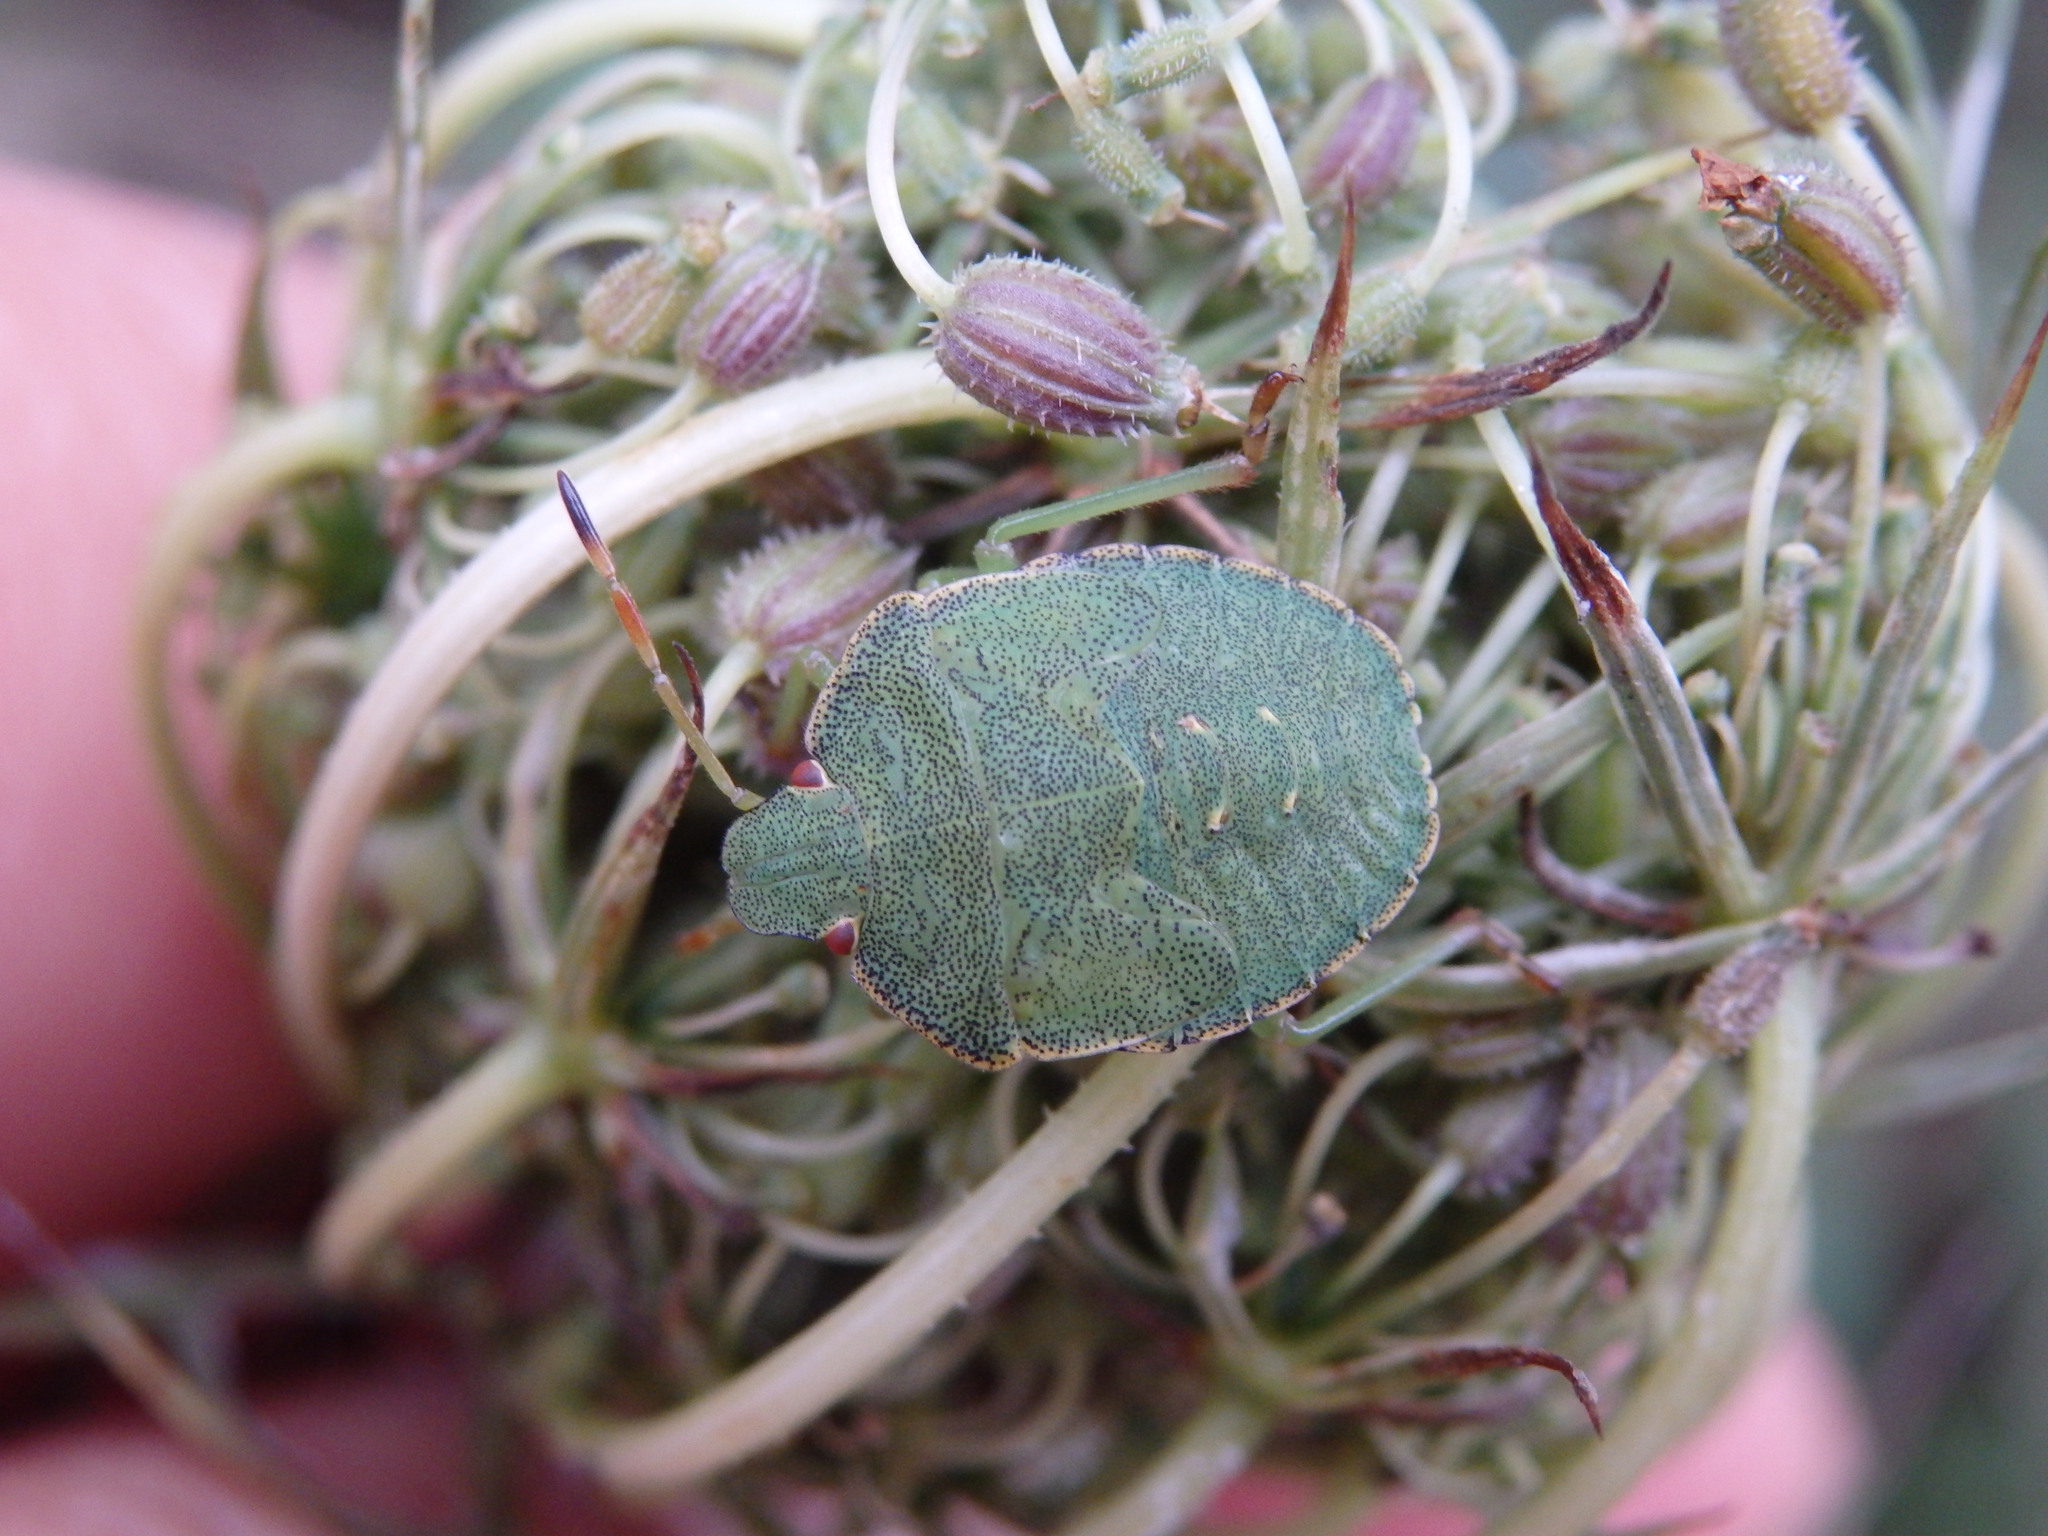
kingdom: Animalia
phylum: Arthropoda
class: Insecta
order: Hemiptera
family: Pentatomidae
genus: Palomena
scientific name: Palomena prasina
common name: Green shieldbug
